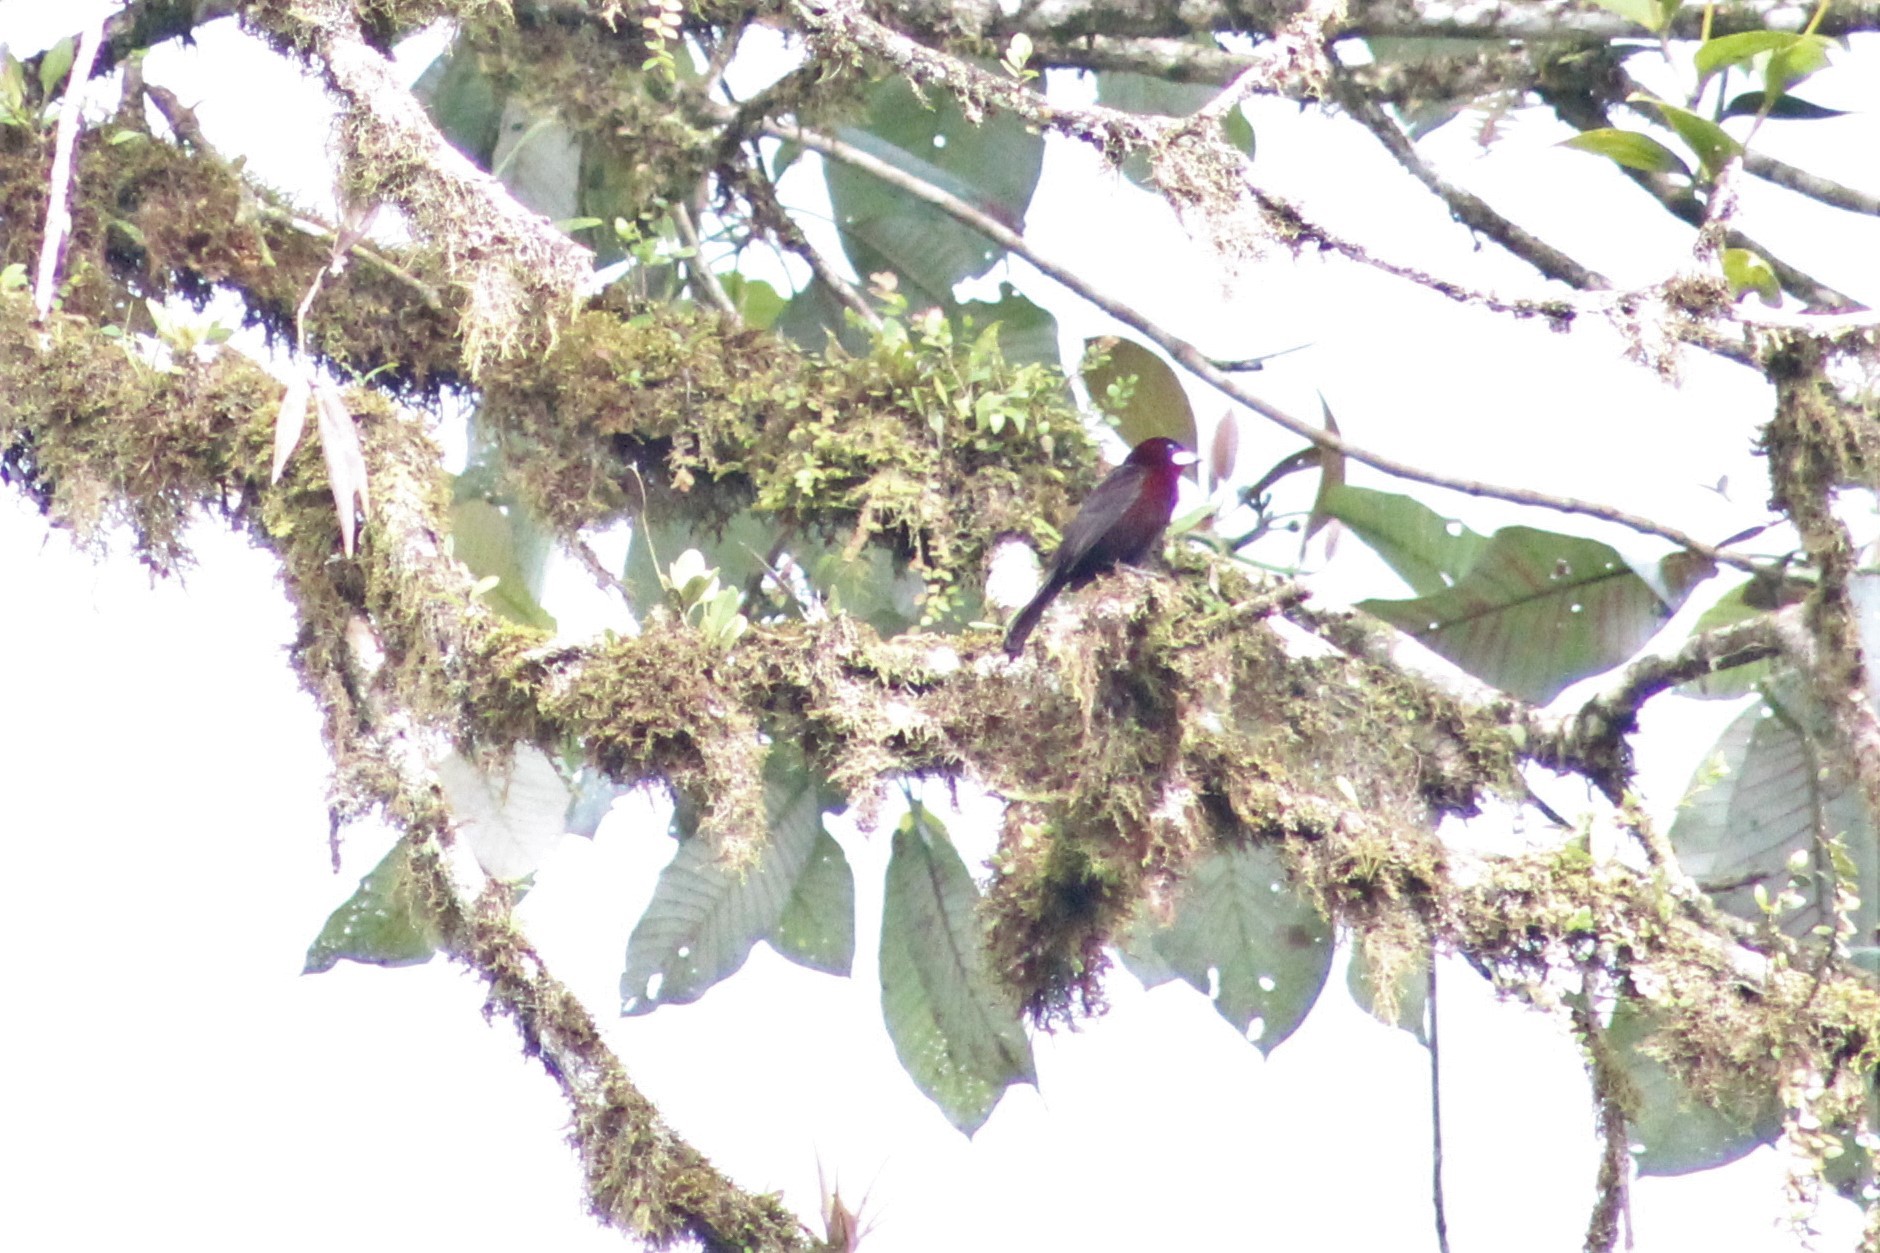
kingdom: Animalia
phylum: Chordata
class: Aves
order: Passeriformes
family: Thraupidae
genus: Ramphocelus
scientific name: Ramphocelus carbo
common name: Silver-beaked tanager
